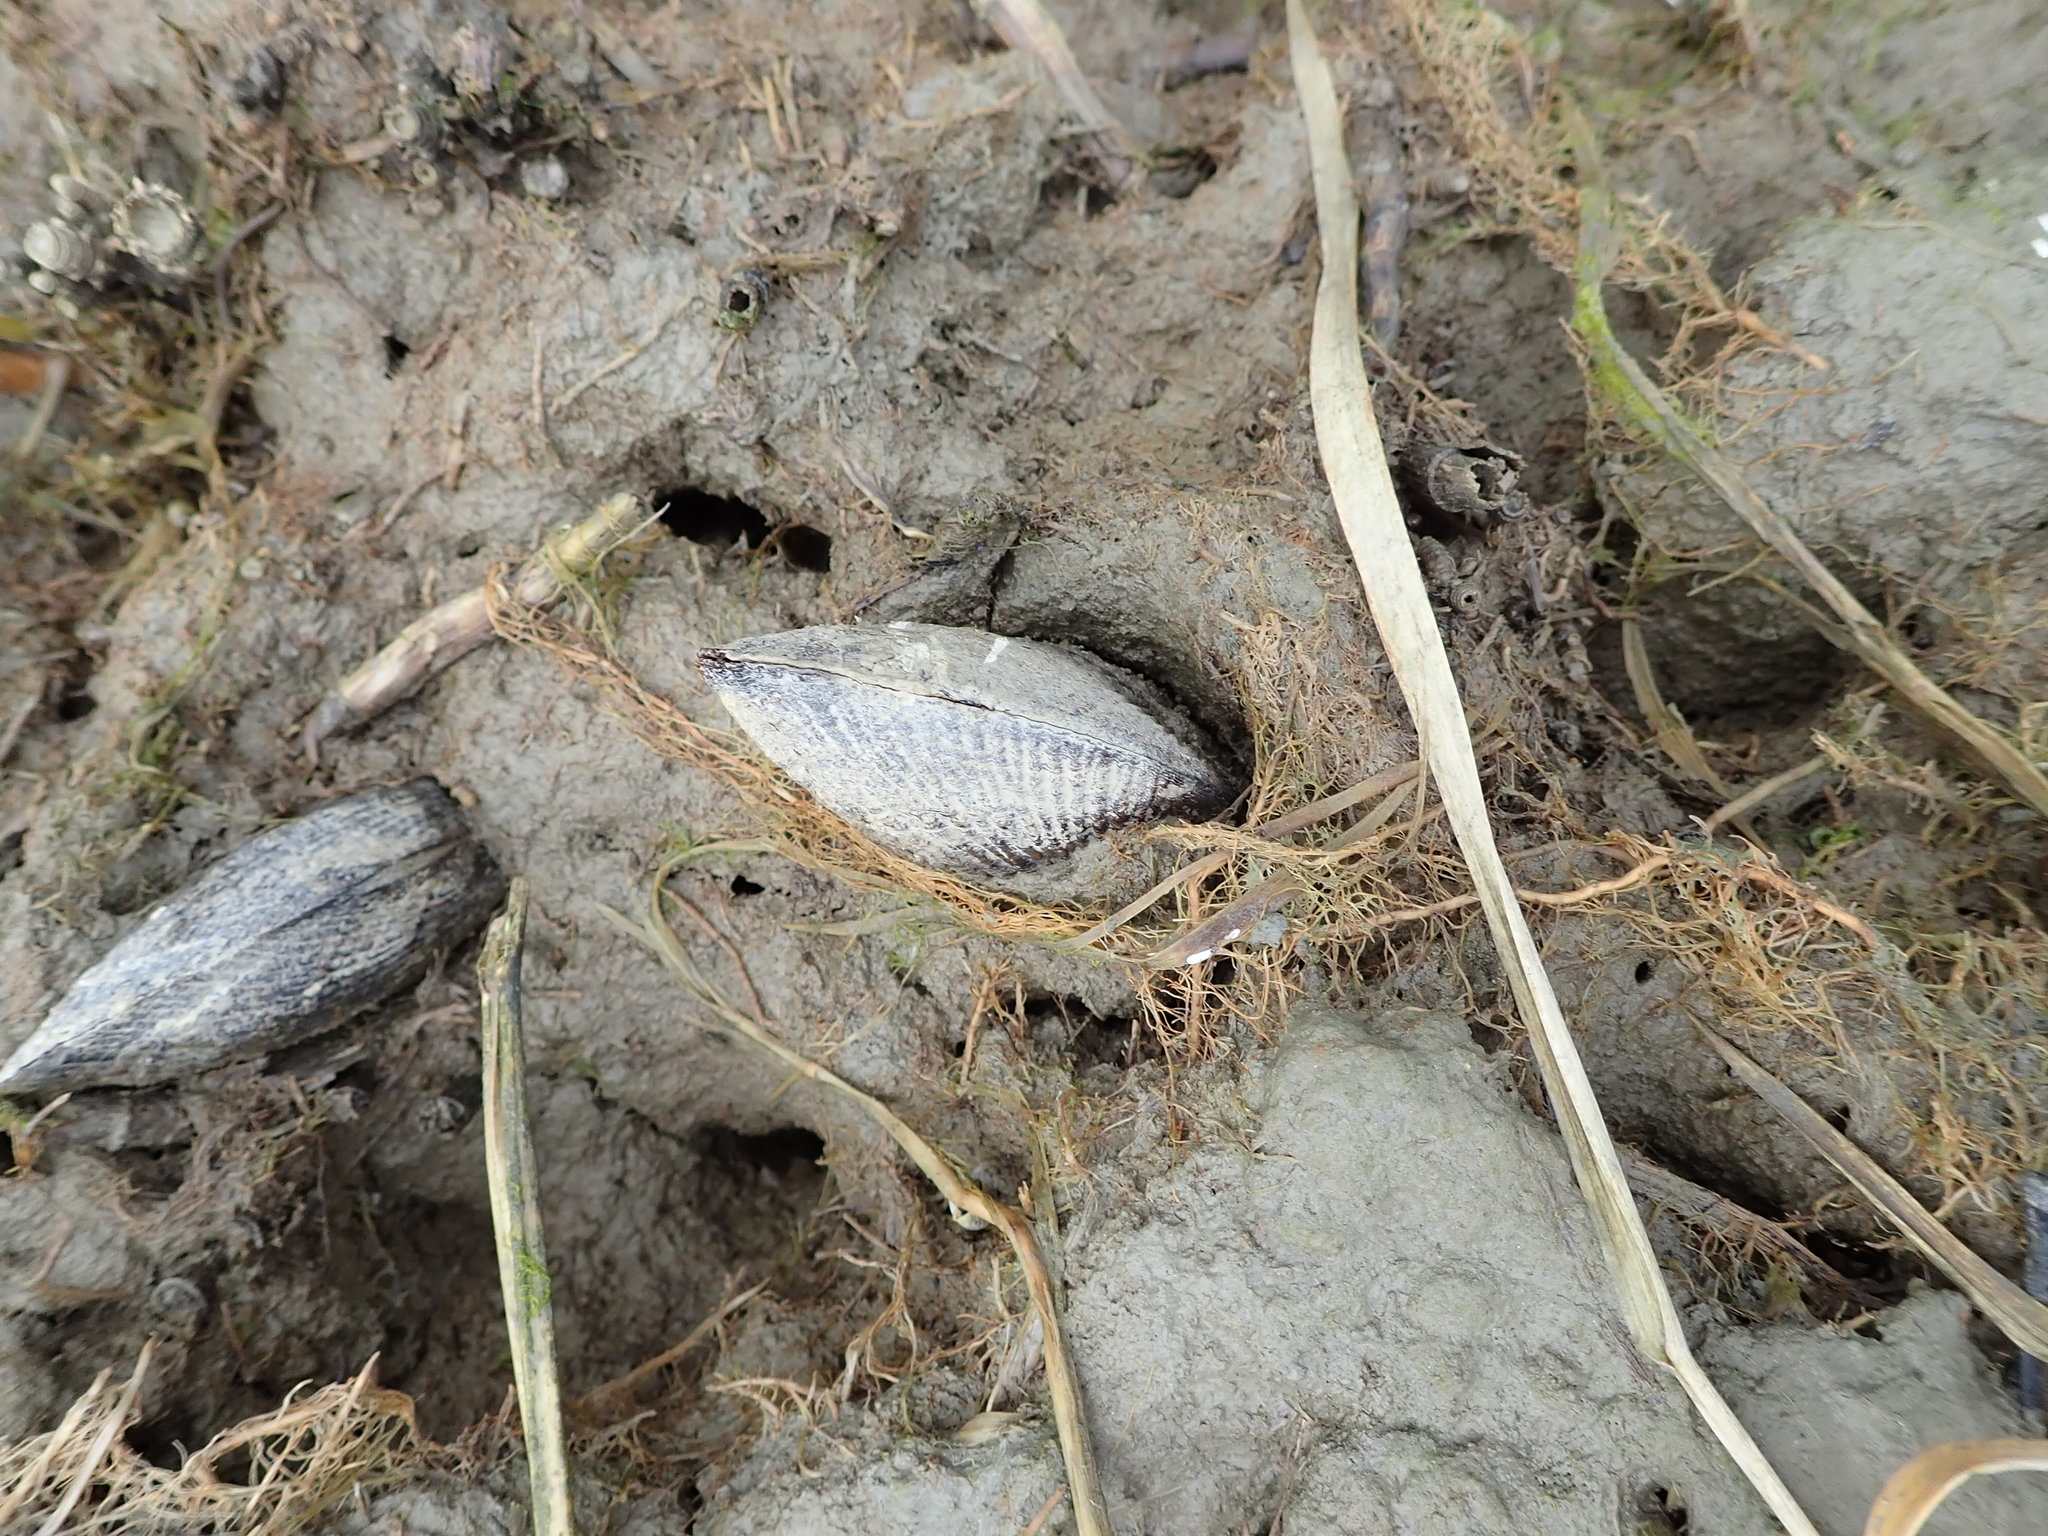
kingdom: Animalia
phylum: Mollusca
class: Bivalvia
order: Mytilida
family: Mytilidae
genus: Geukensia
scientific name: Geukensia demissa
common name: Ribbed mussel
